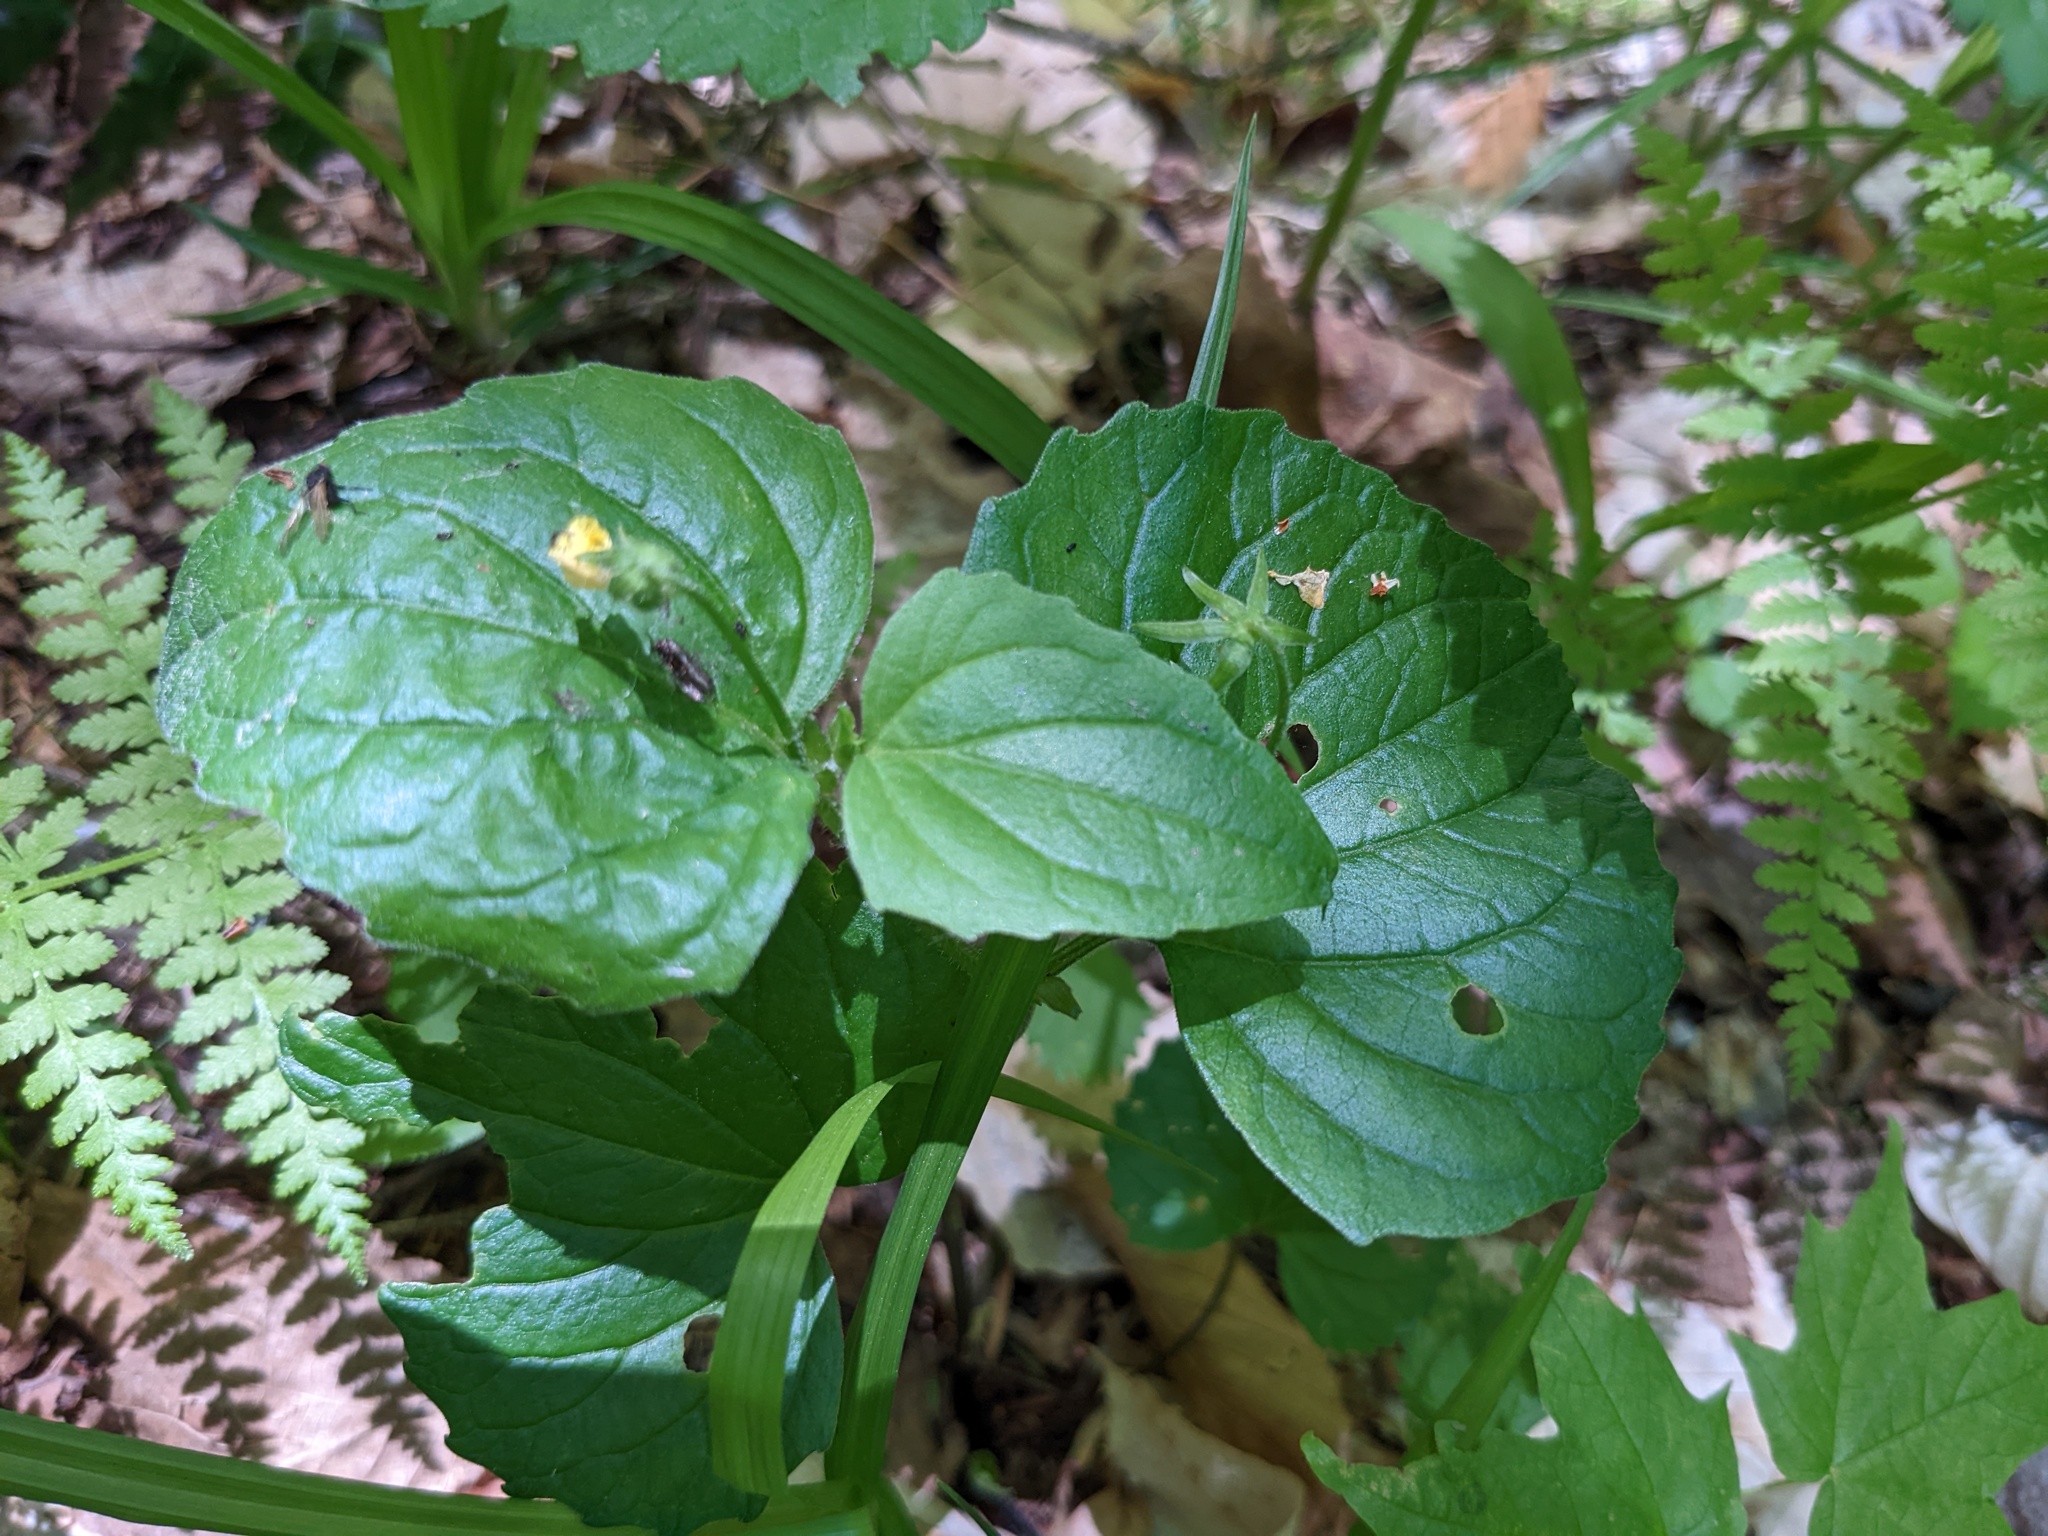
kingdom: Plantae
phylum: Tracheophyta
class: Magnoliopsida
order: Malpighiales
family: Violaceae
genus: Viola
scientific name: Viola eriocarpa
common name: Smooth yellow violet
